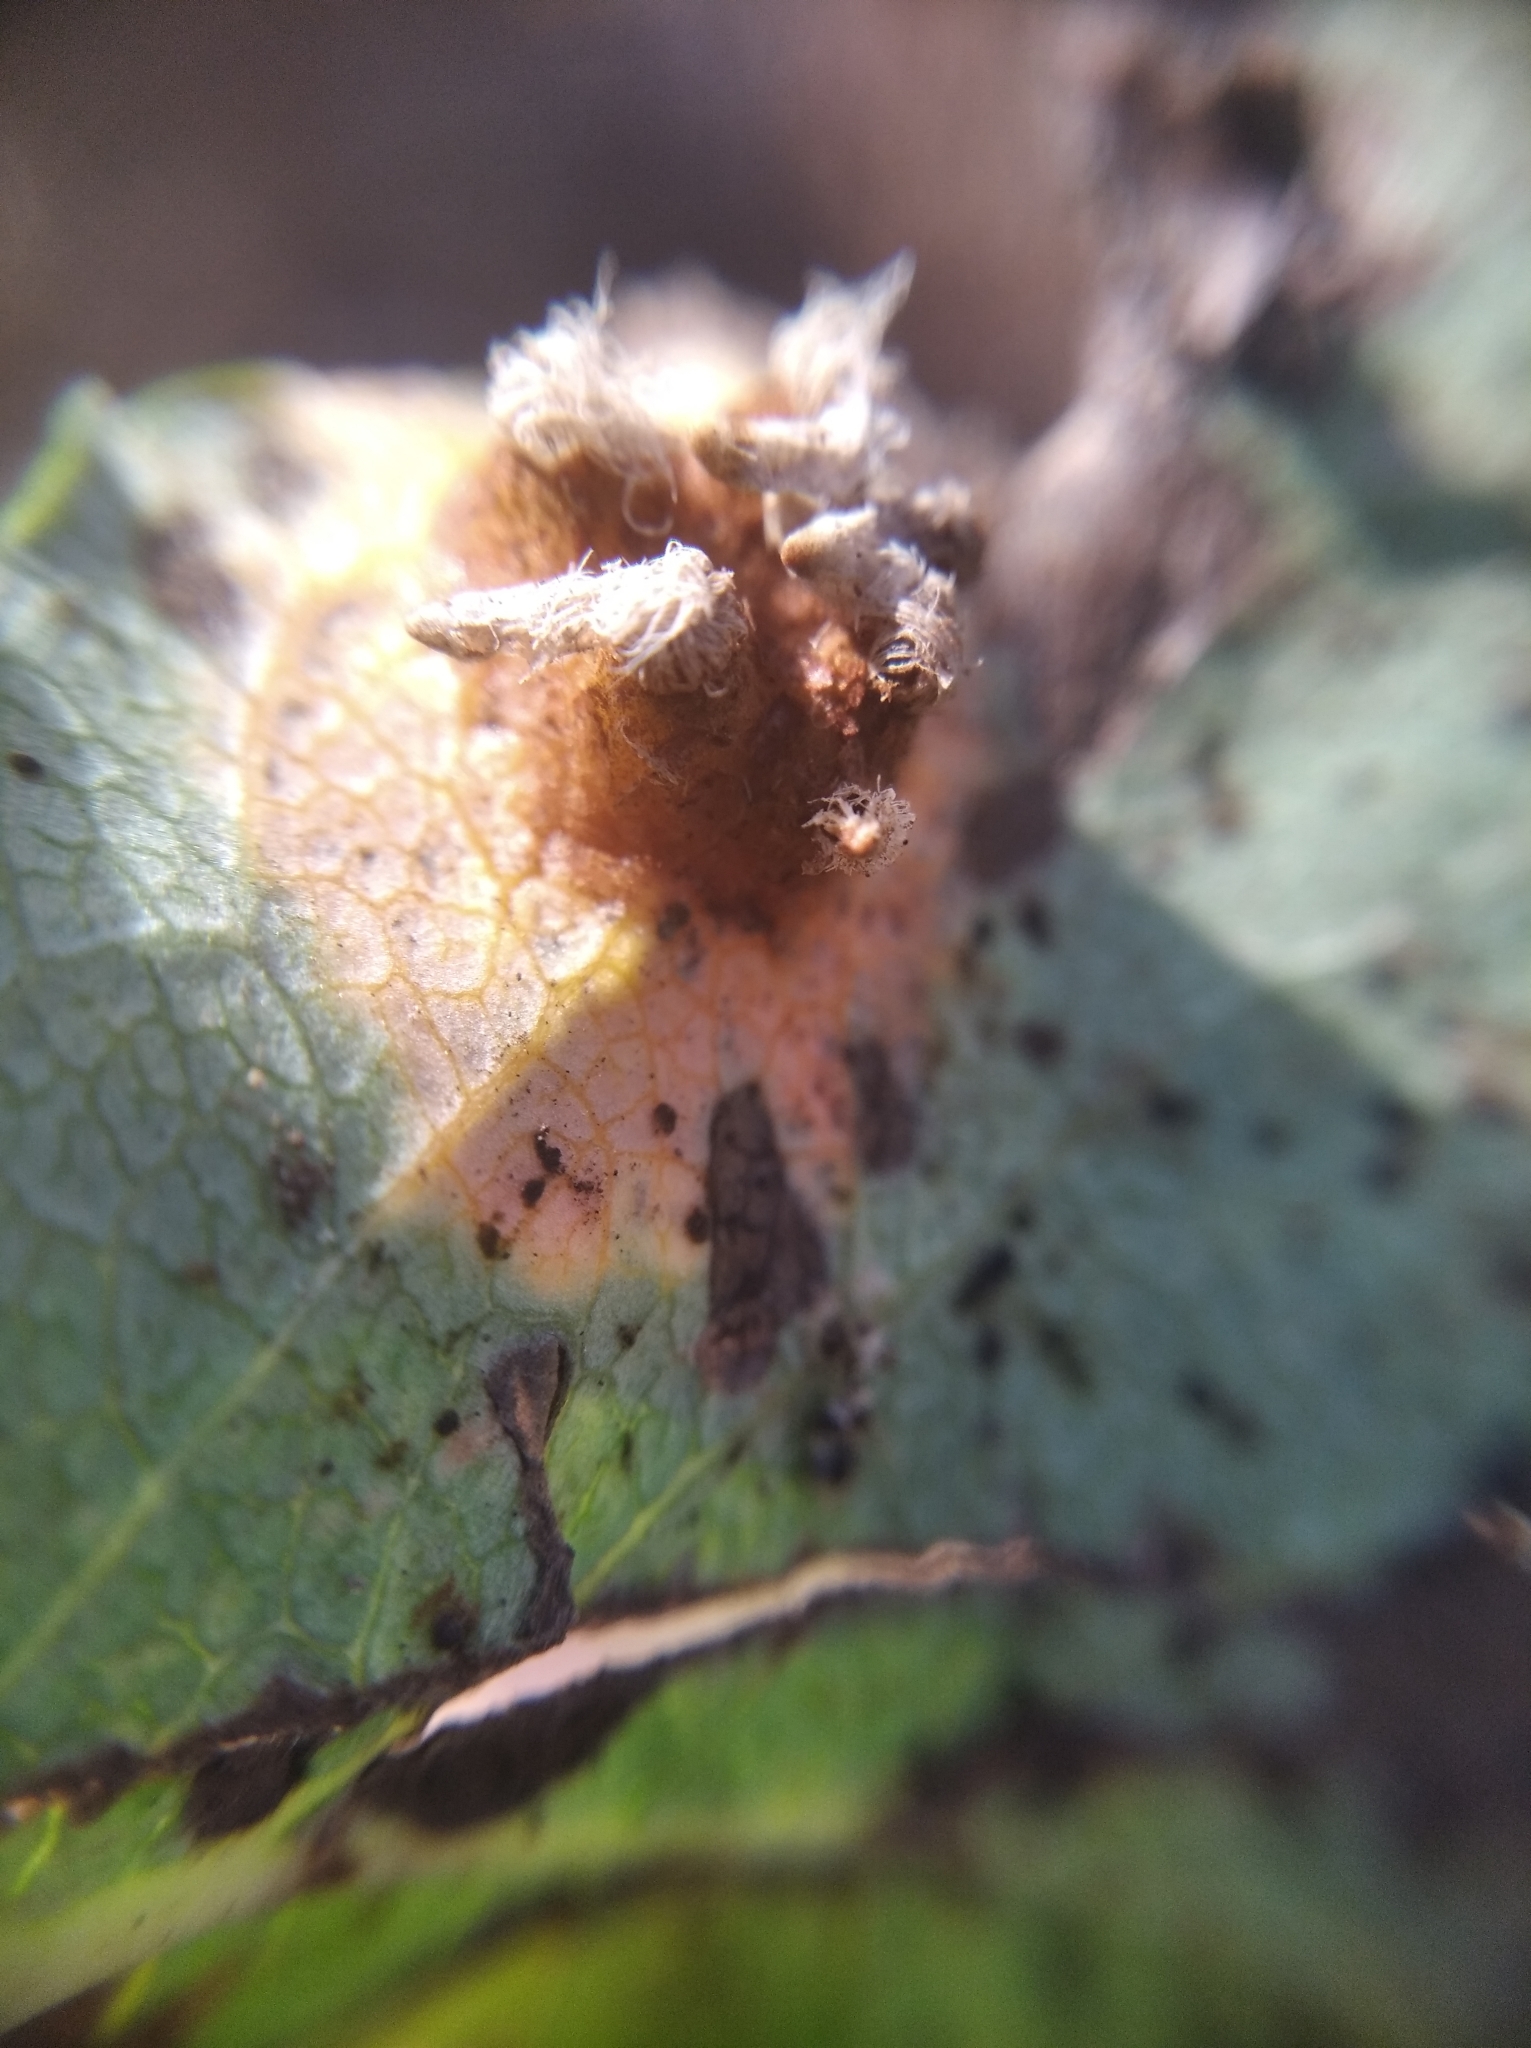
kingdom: Fungi
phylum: Basidiomycota
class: Pucciniomycetes
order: Pucciniales
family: Gymnosporangiaceae
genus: Gymnosporangium
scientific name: Gymnosporangium sabinae
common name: Pear trellis rust fungus
